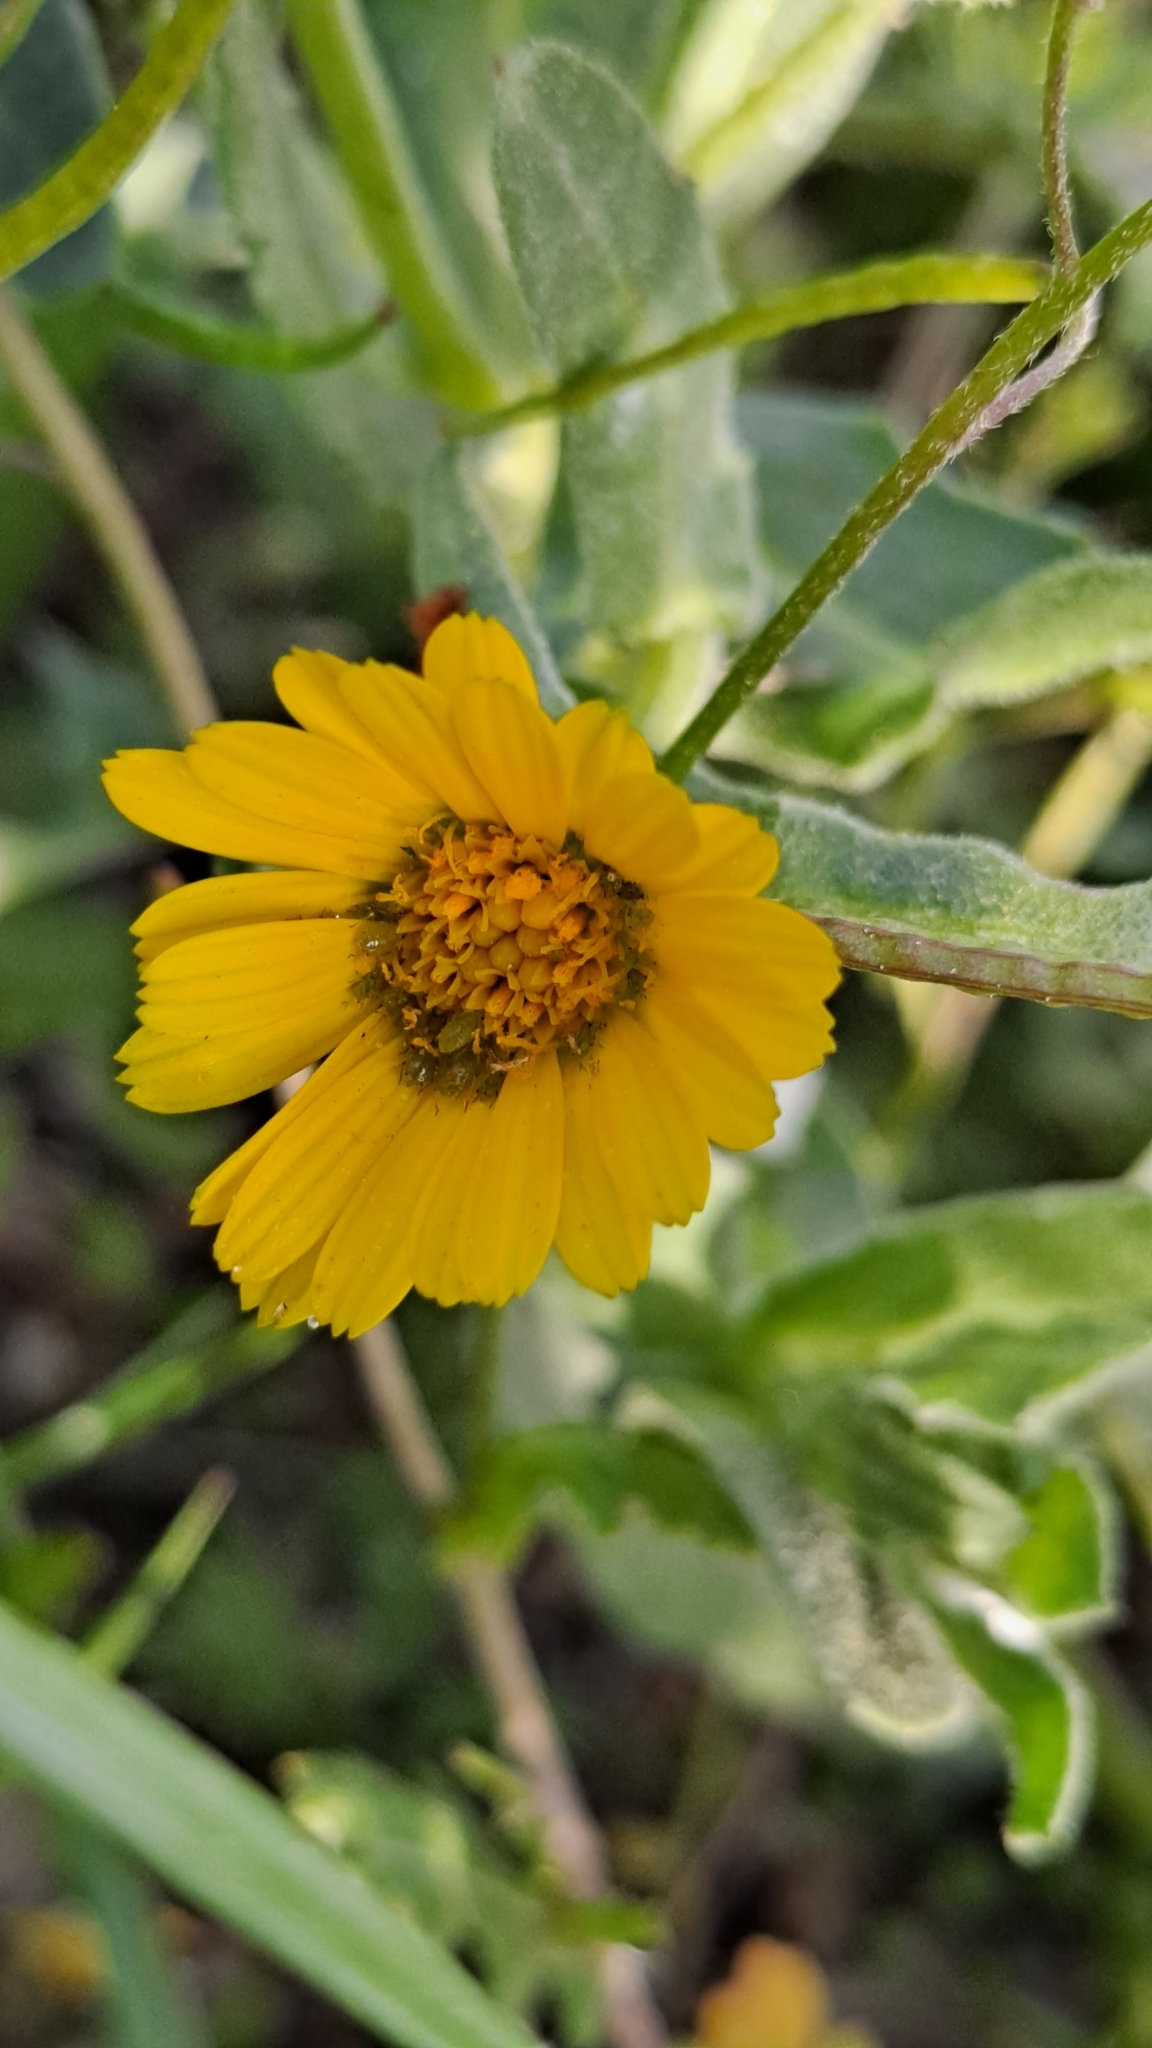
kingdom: Plantae
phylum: Tracheophyta
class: Magnoliopsida
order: Asterales
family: Asteraceae
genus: Calendula
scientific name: Calendula arvensis
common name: Field marigold
